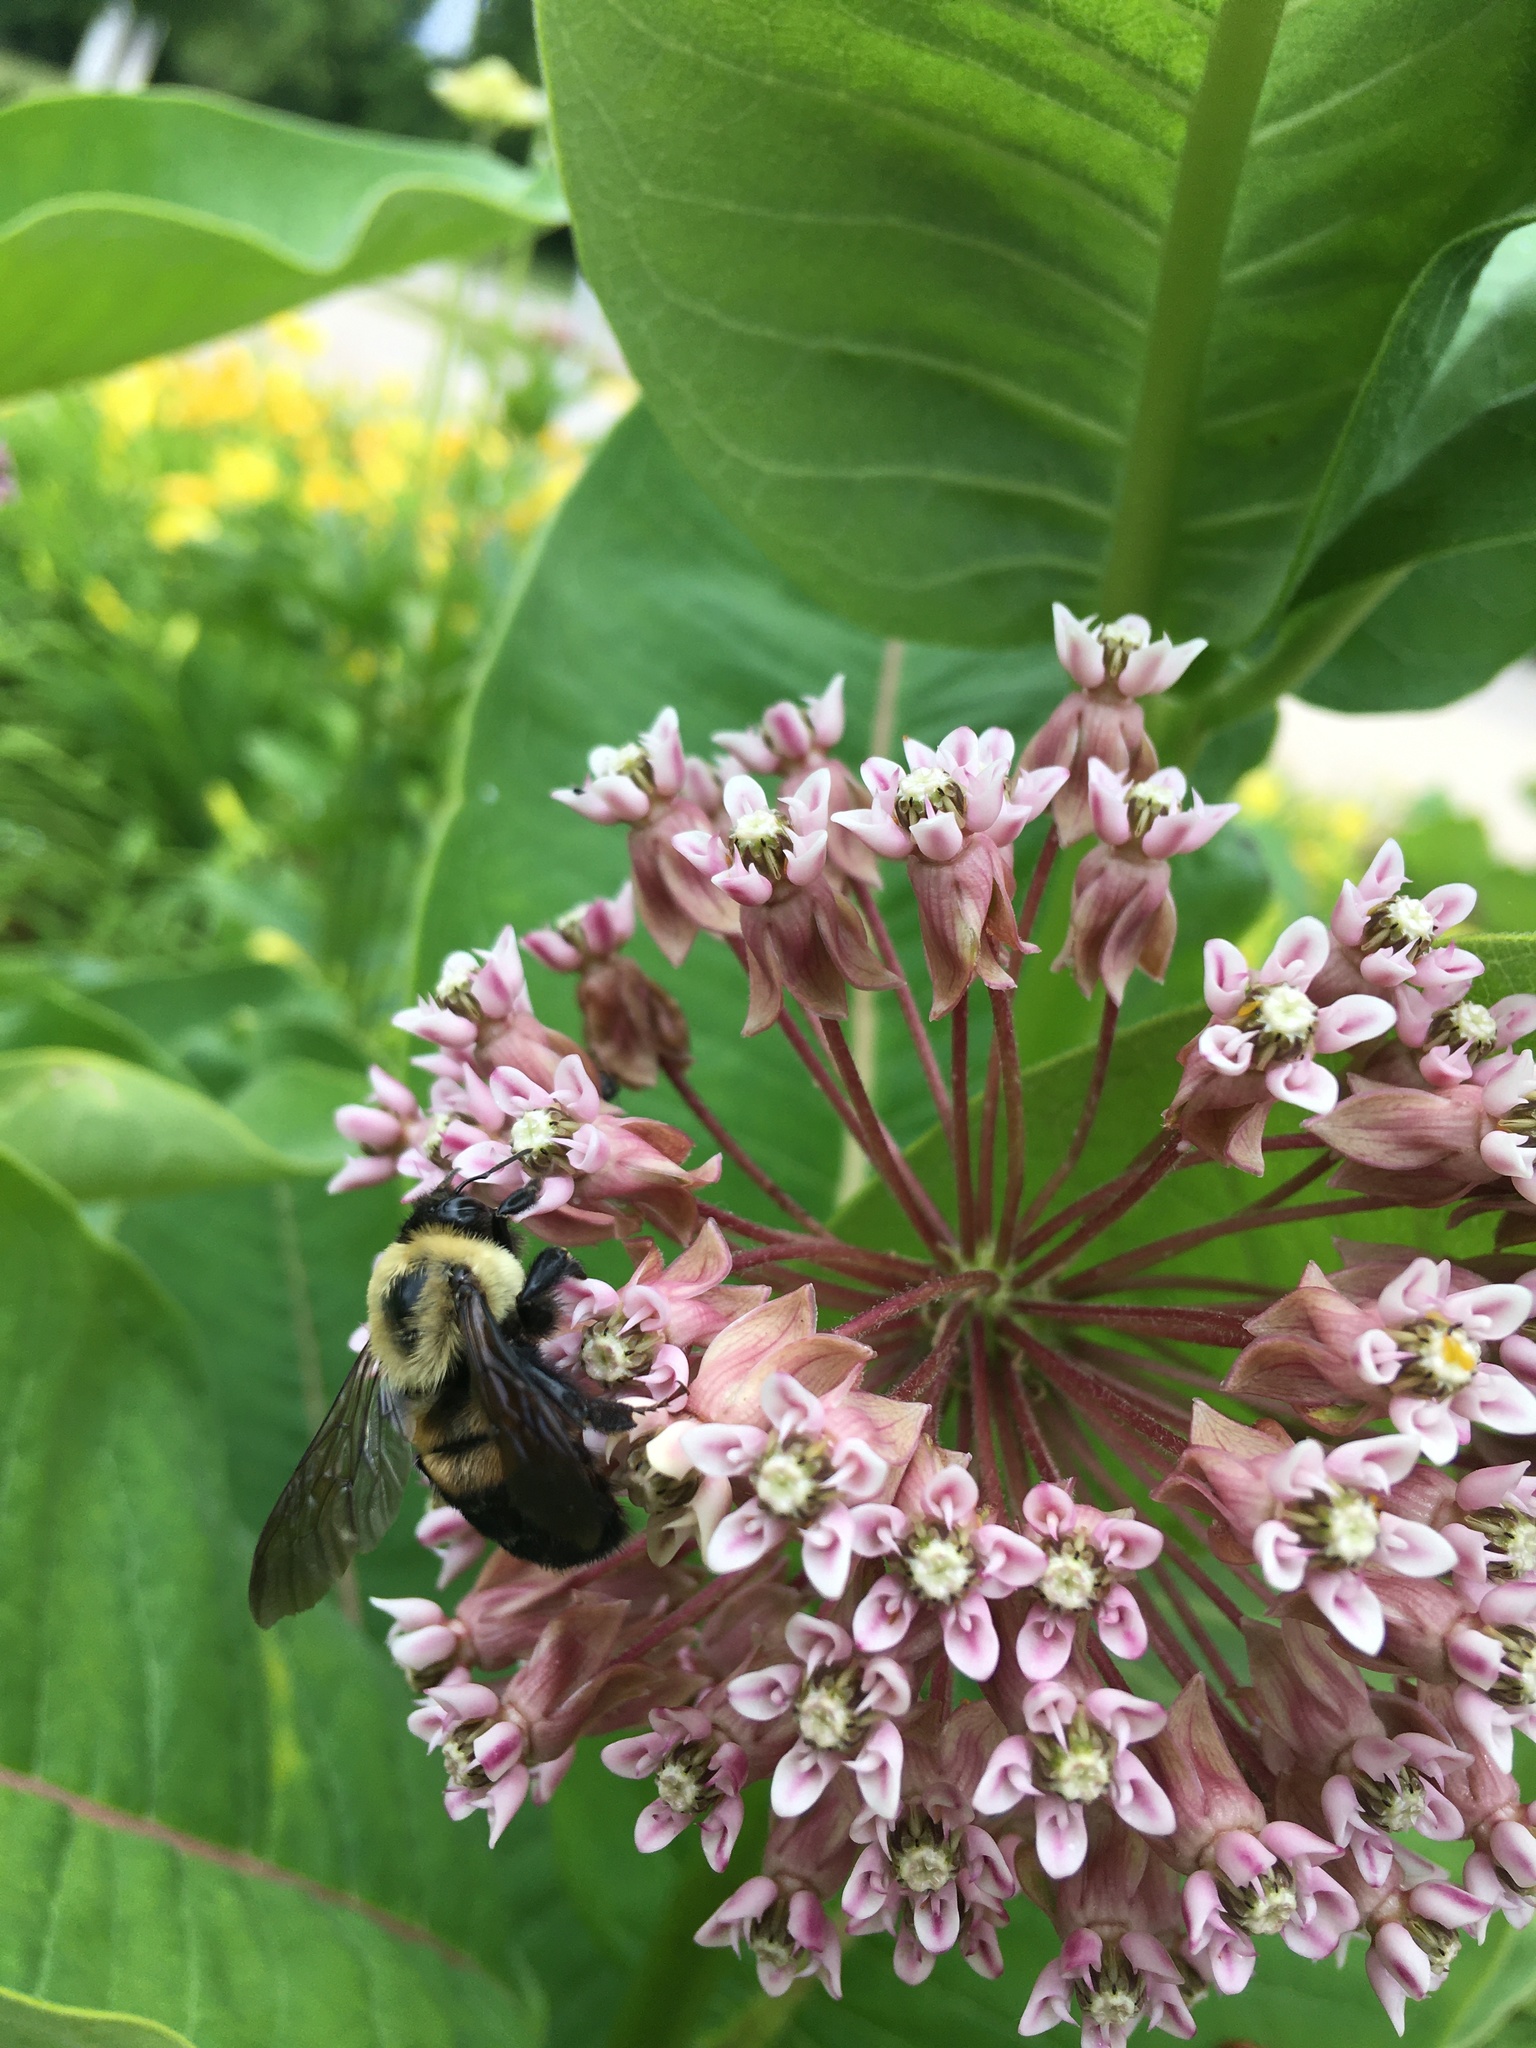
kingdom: Animalia
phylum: Arthropoda
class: Insecta
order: Hymenoptera
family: Apidae
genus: Bombus
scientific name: Bombus griseocollis
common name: Brown-belted bumble bee
